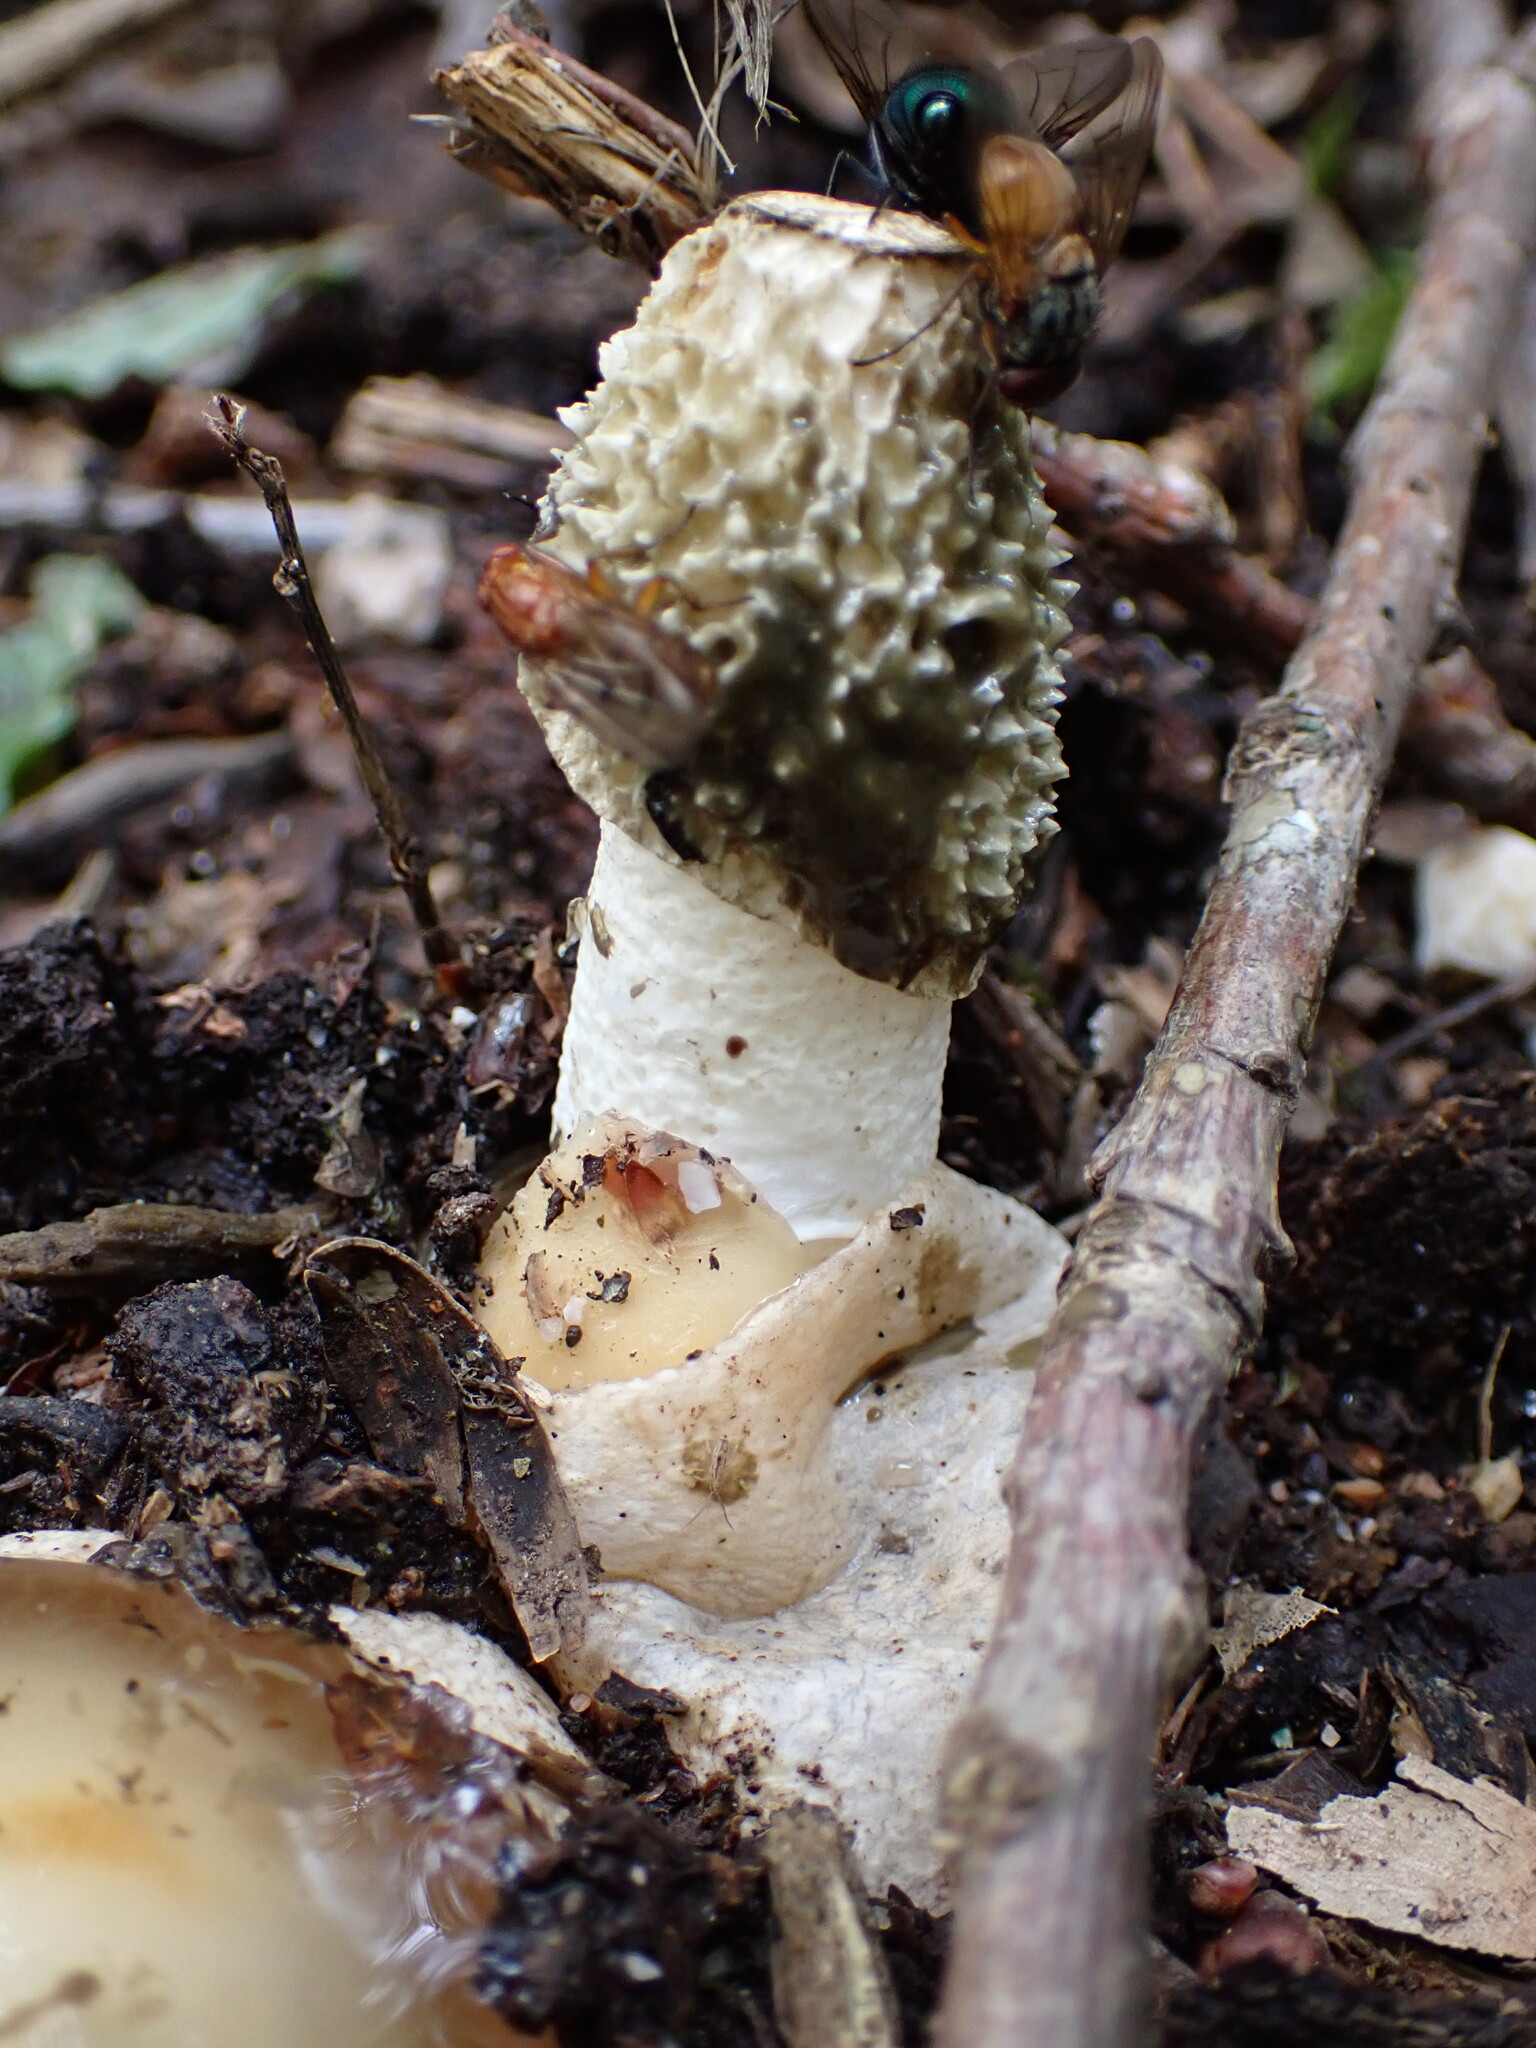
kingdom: Fungi
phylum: Basidiomycota
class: Agaricomycetes
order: Phallales
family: Phallaceae
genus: Phallus
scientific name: Phallus impudicus
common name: Common stinkhorn
